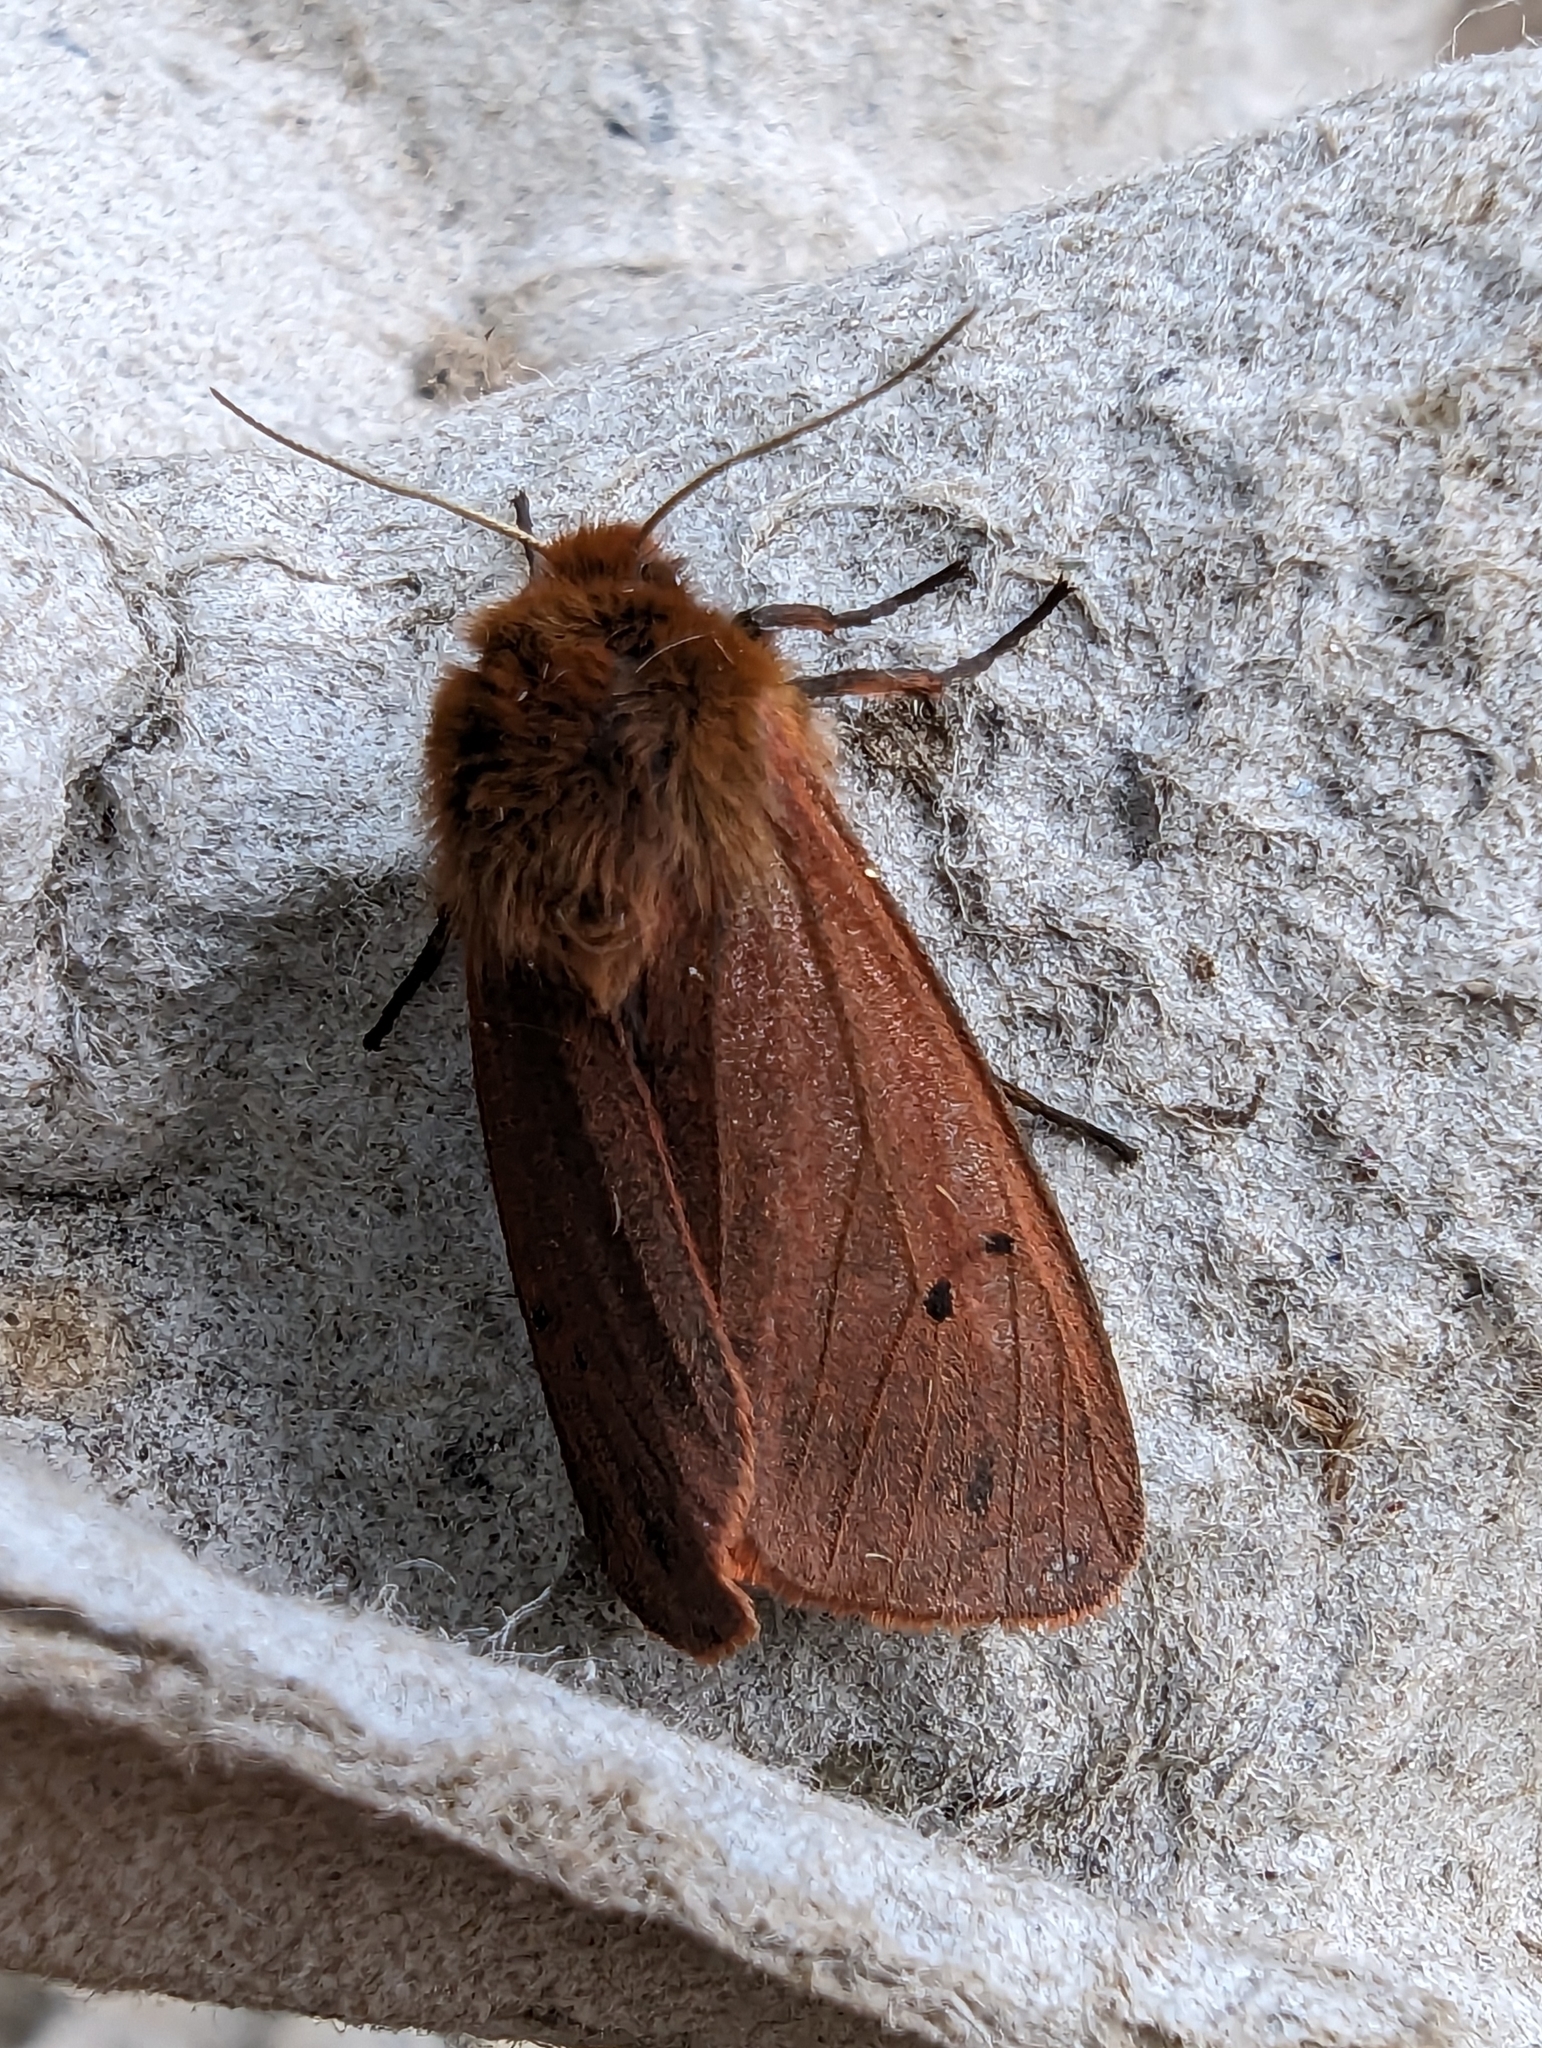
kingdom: Animalia
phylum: Arthropoda
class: Insecta
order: Lepidoptera
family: Erebidae
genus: Phragmatobia
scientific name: Phragmatobia fuliginosa
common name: Ruby tiger
